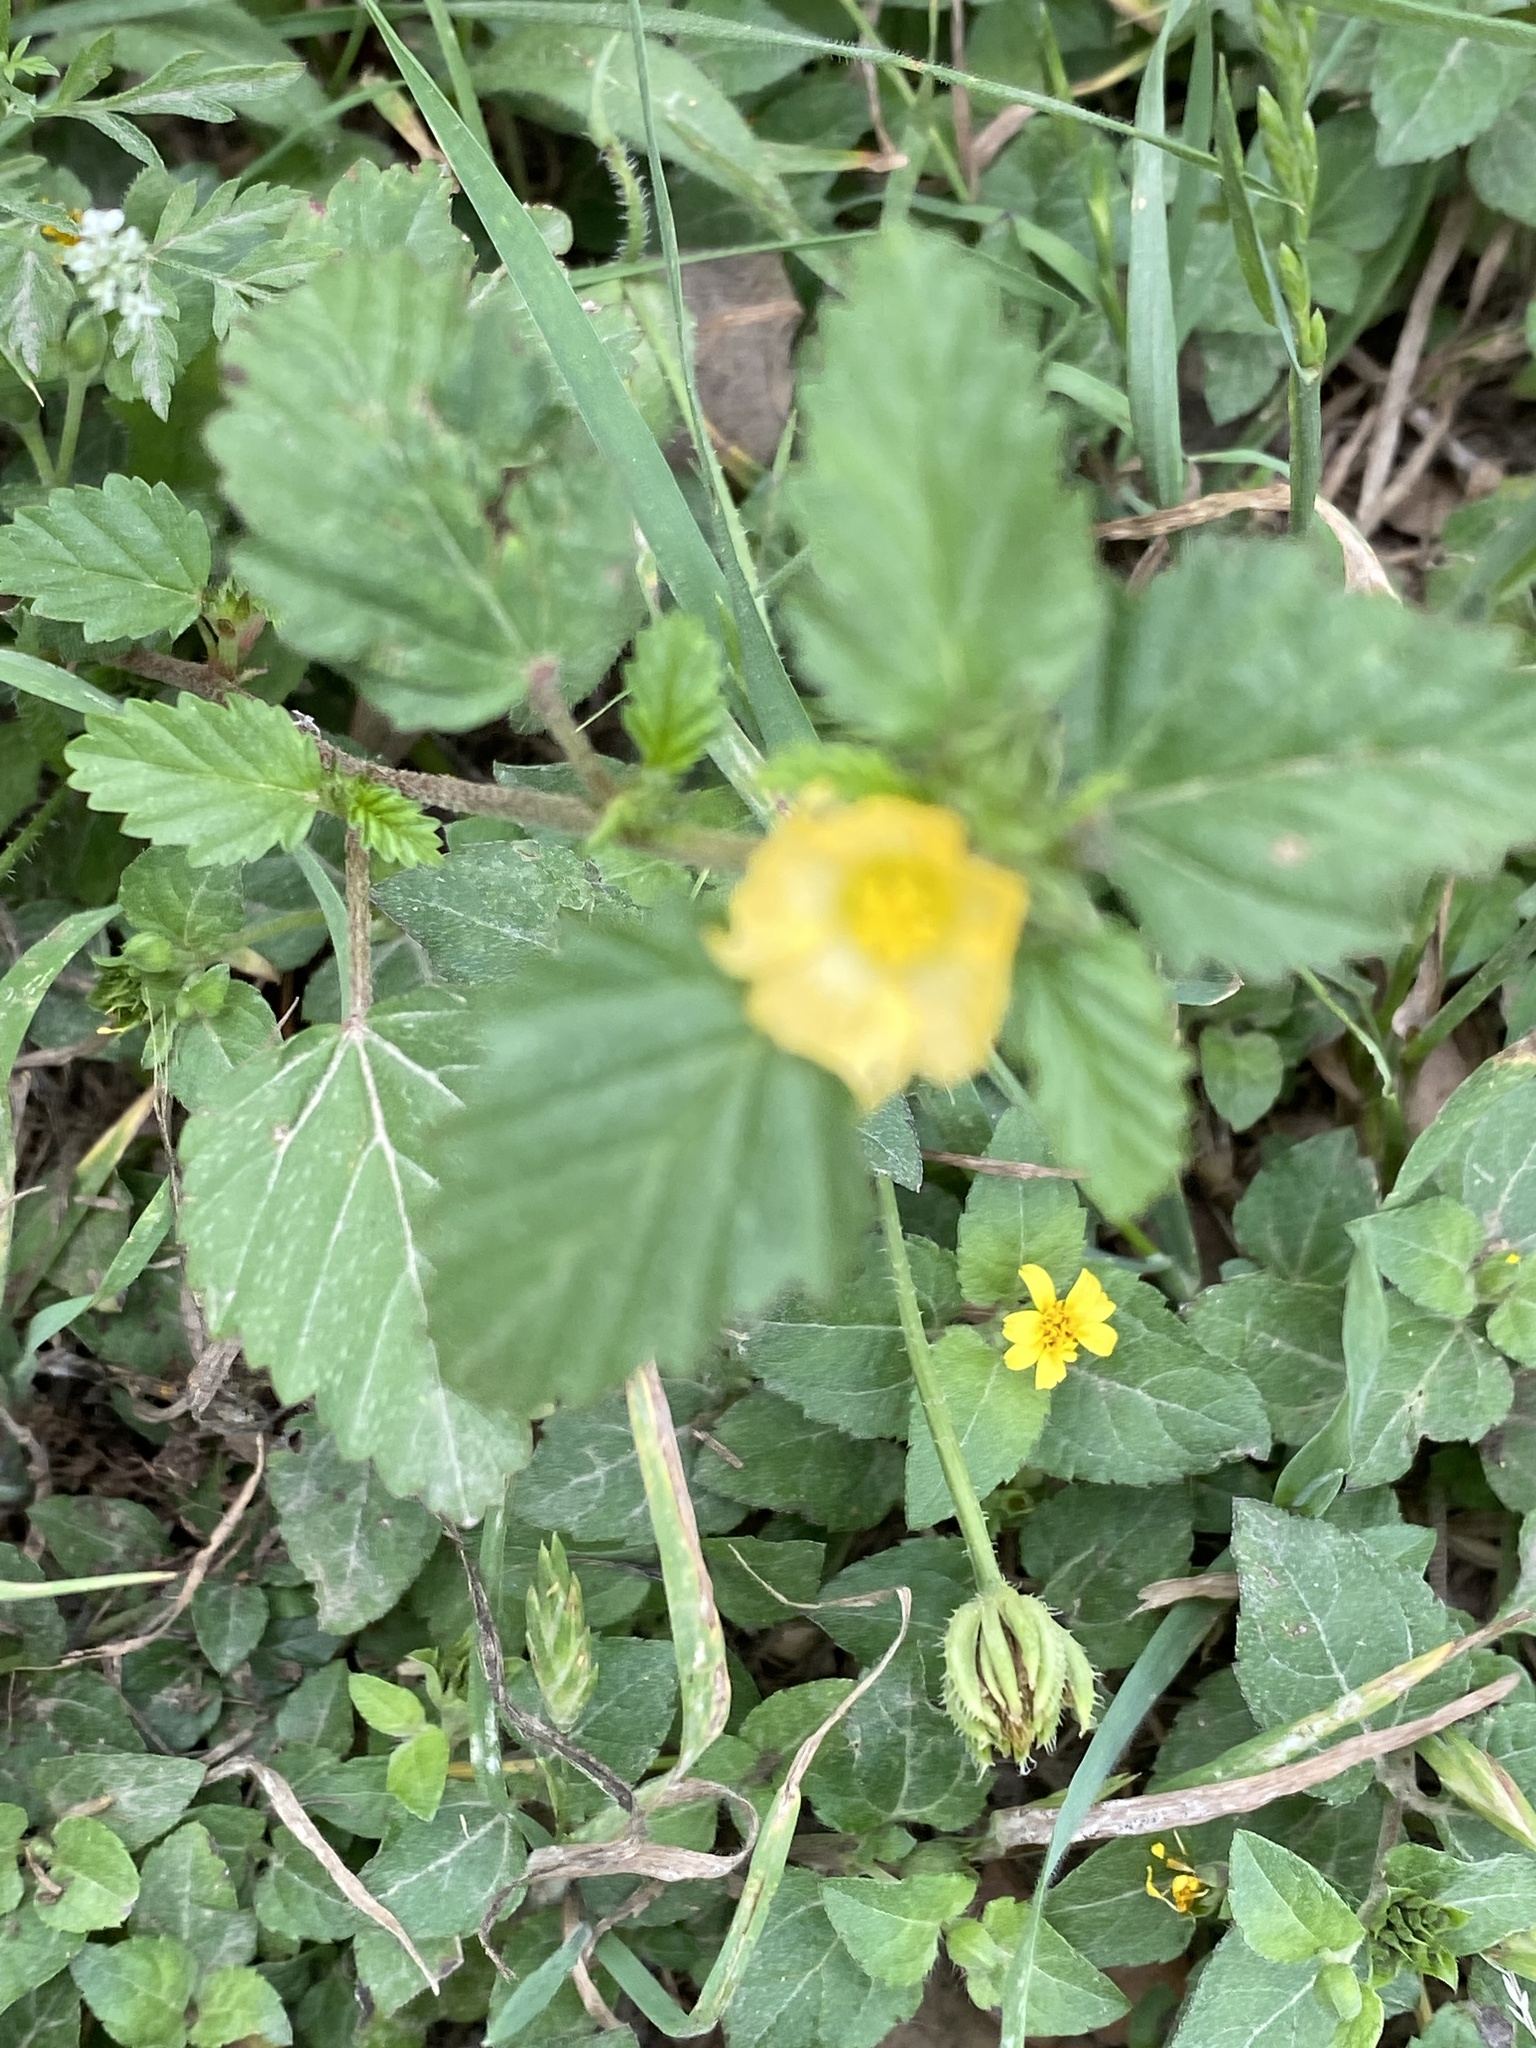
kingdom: Plantae
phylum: Tracheophyta
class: Magnoliopsida
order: Malvales
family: Malvaceae
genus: Malvastrum
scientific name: Malvastrum coromandelianum
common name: Threelobe false mallow
